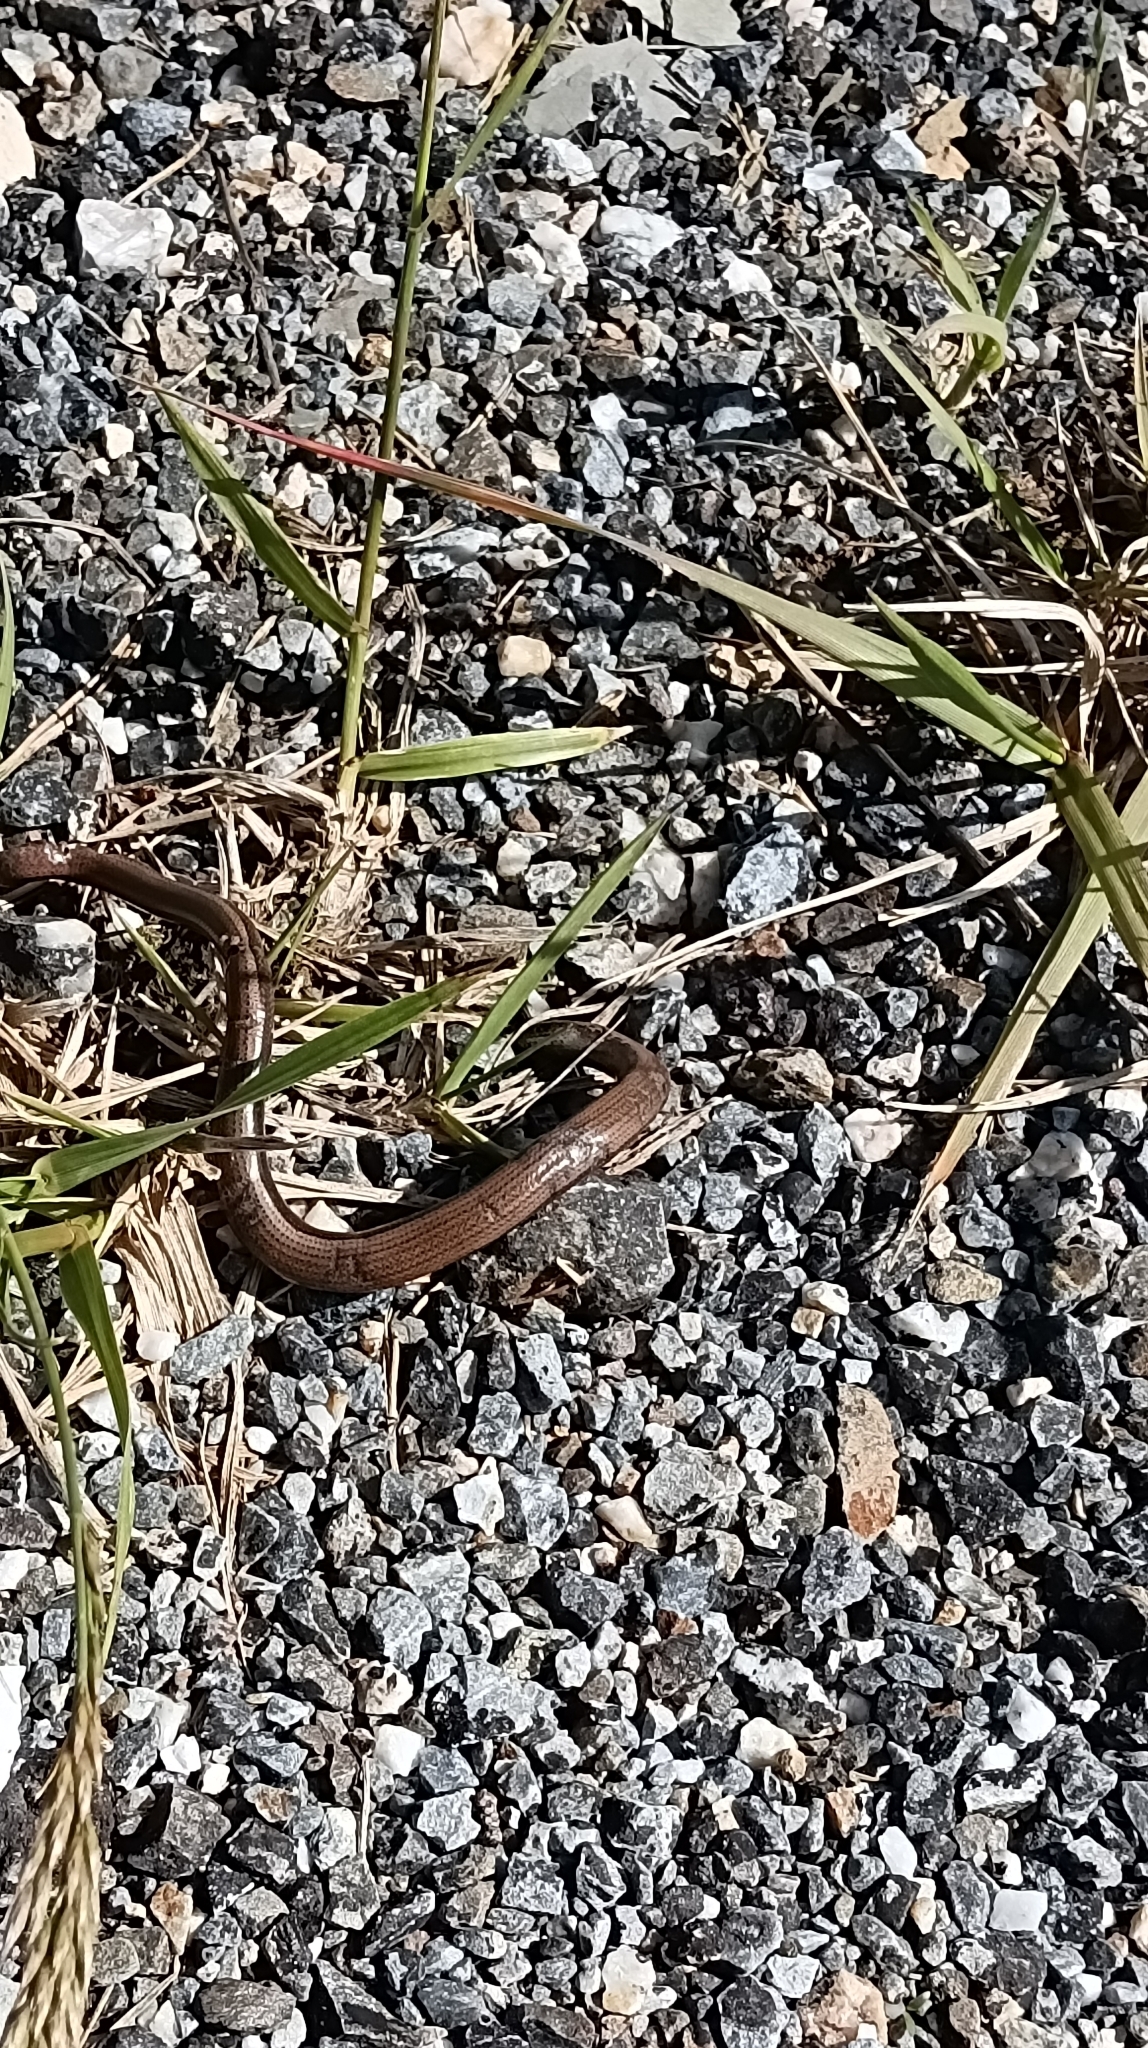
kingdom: Animalia
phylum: Chordata
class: Squamata
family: Anguidae
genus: Anguis
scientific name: Anguis fragilis
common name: Slow worm
